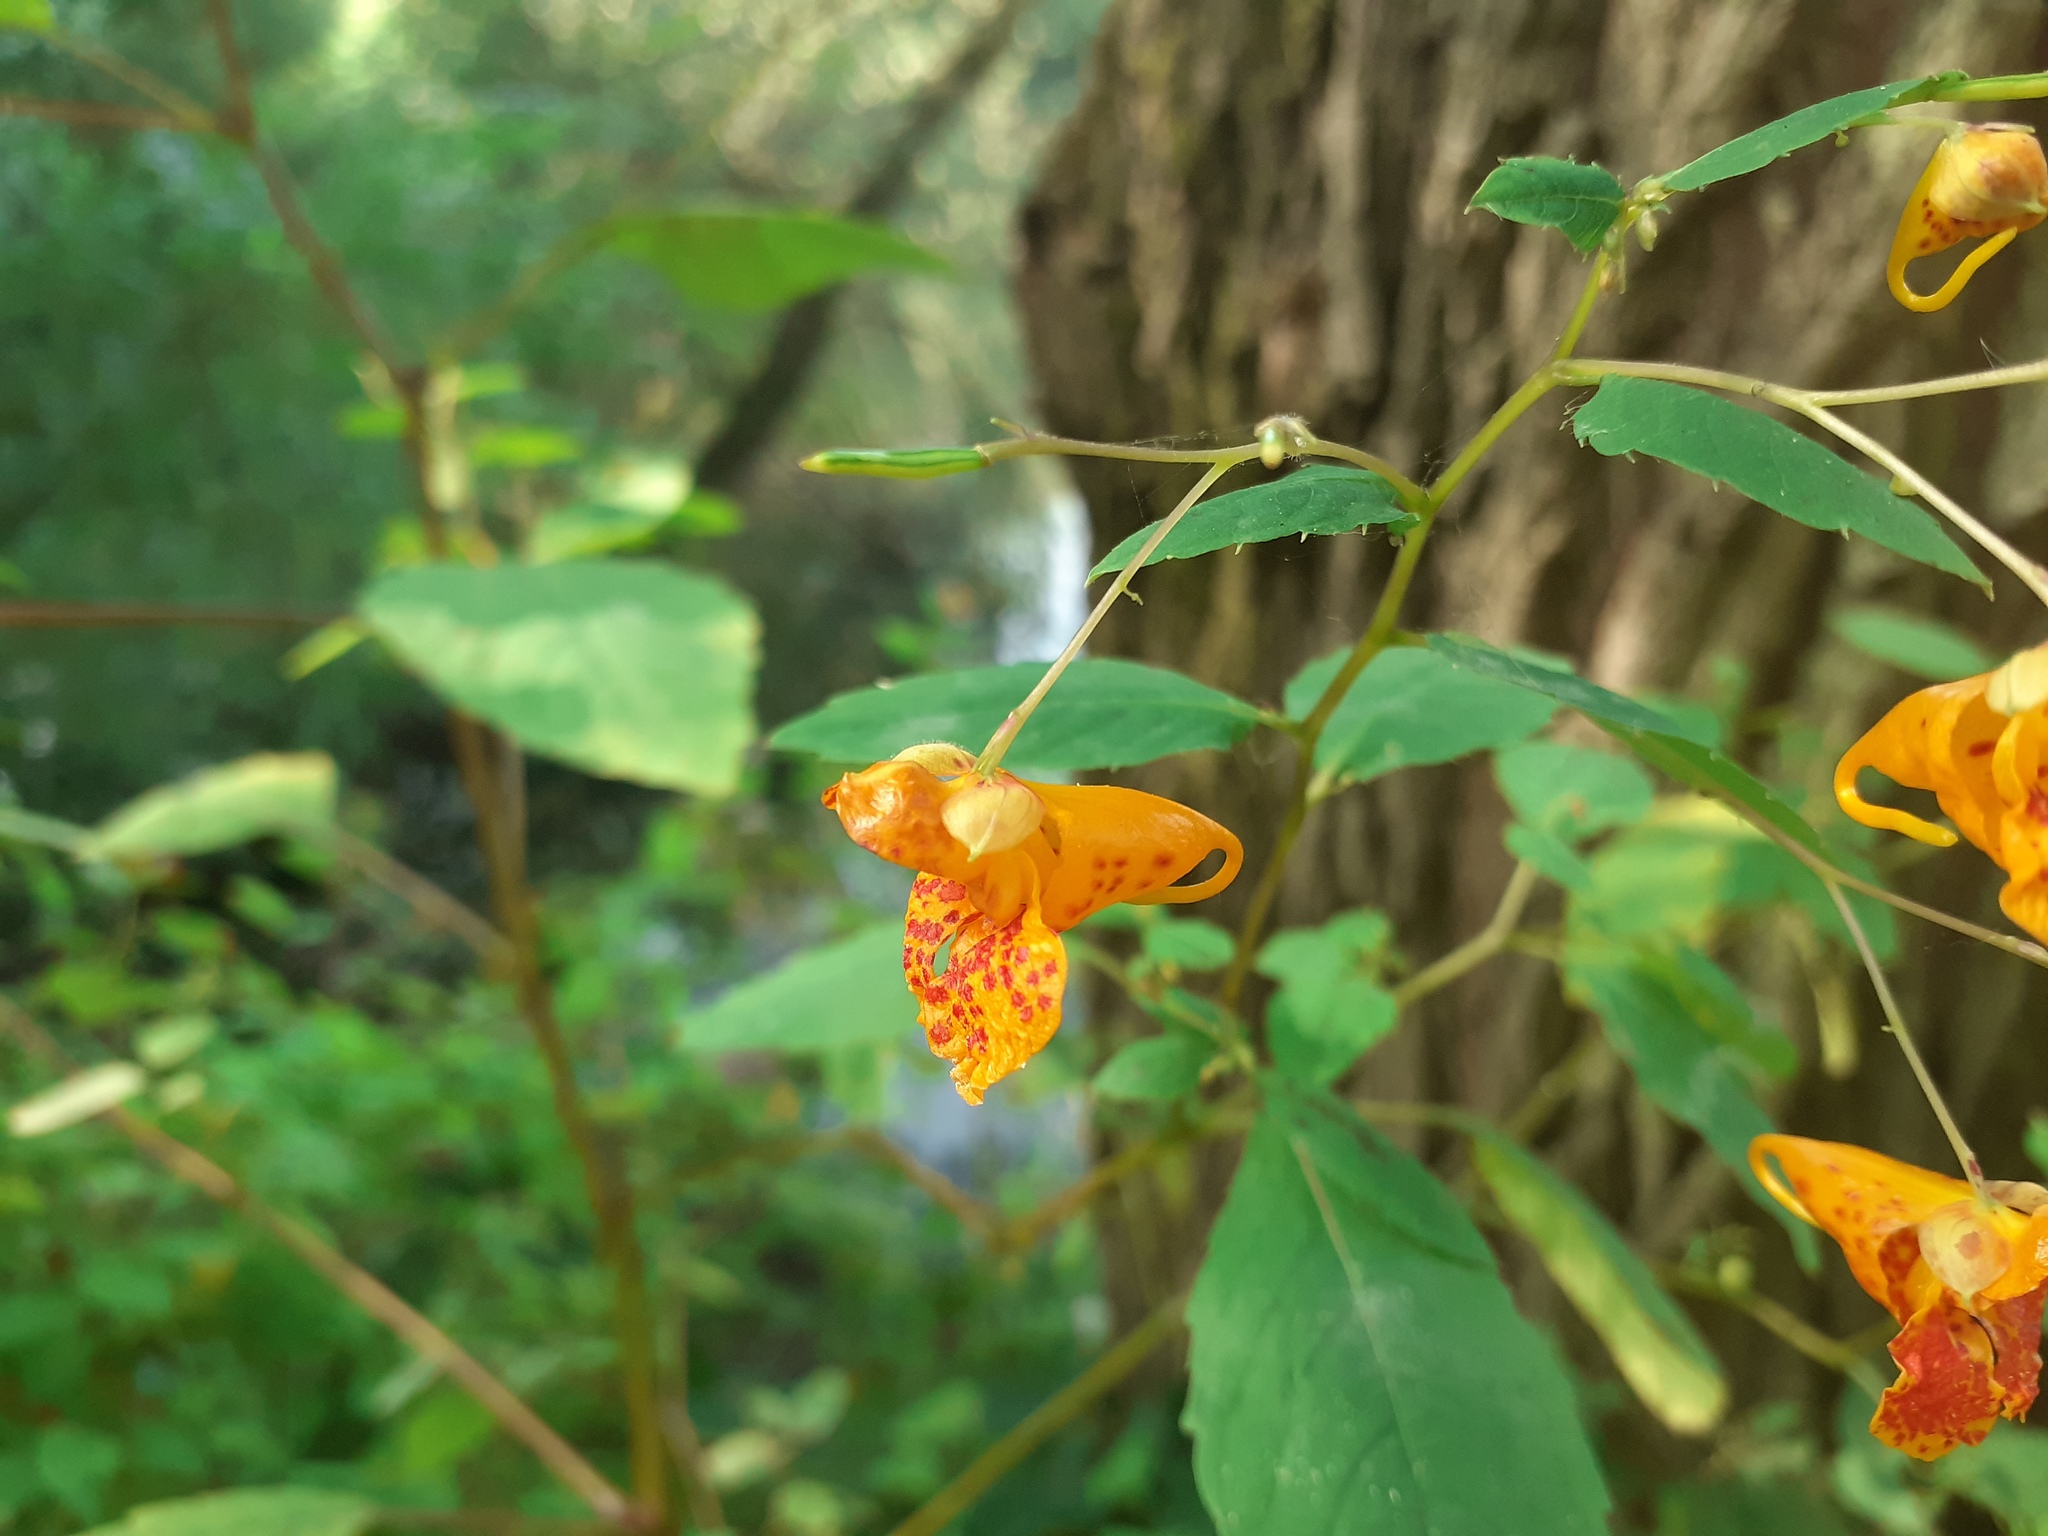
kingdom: Plantae
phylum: Tracheophyta
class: Magnoliopsida
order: Ericales
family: Balsaminaceae
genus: Impatiens
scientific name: Impatiens capensis
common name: Orange balsam
